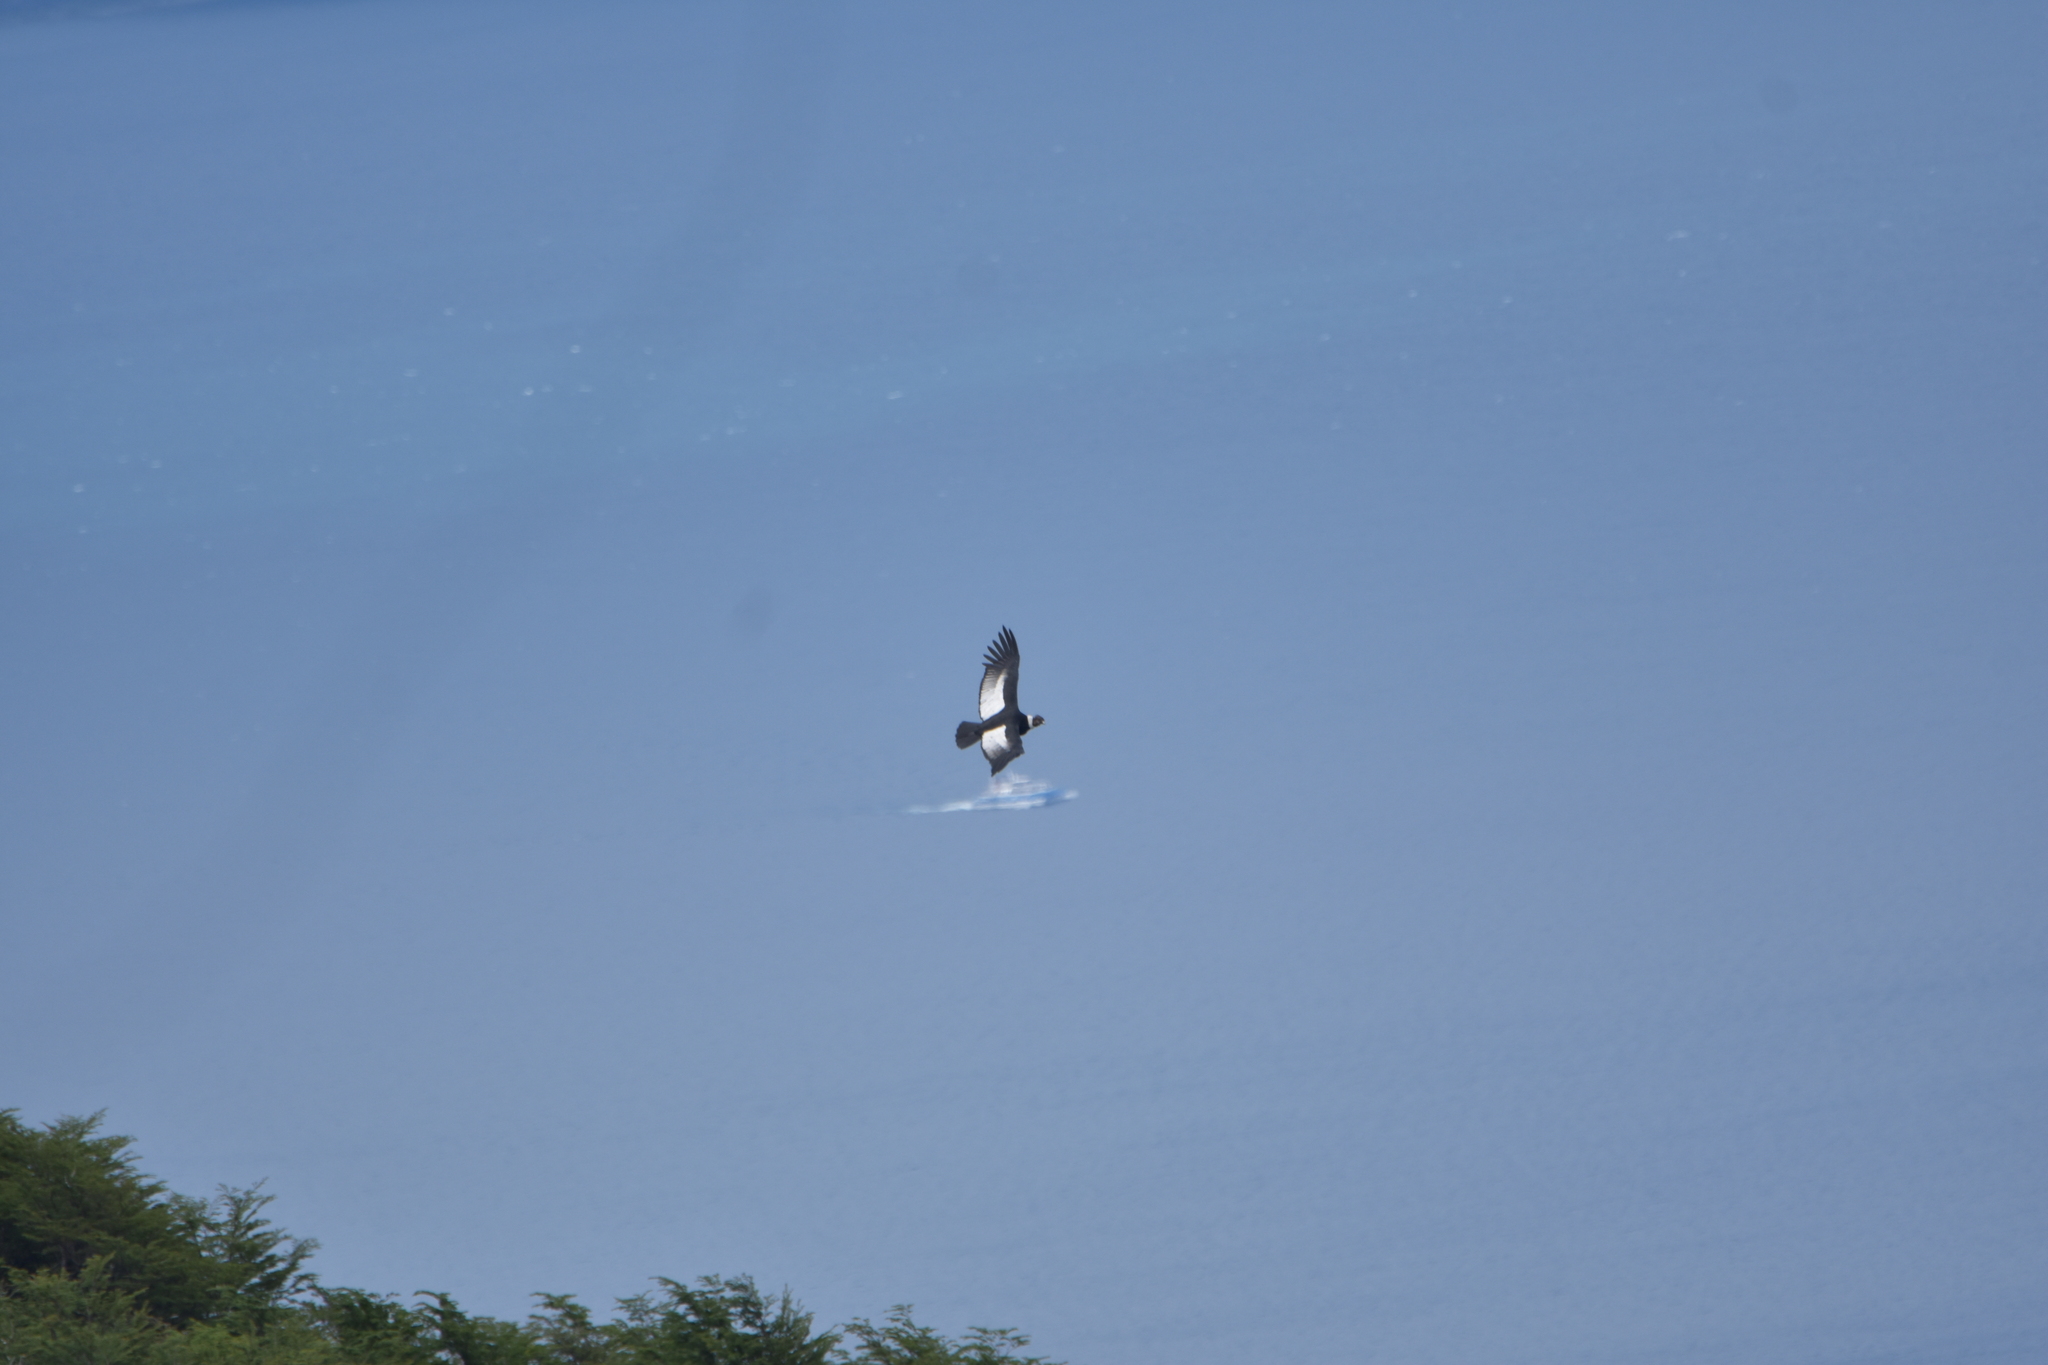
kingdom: Animalia
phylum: Chordata
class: Aves
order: Accipitriformes
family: Cathartidae
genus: Vultur
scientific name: Vultur gryphus
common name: Andean condor
